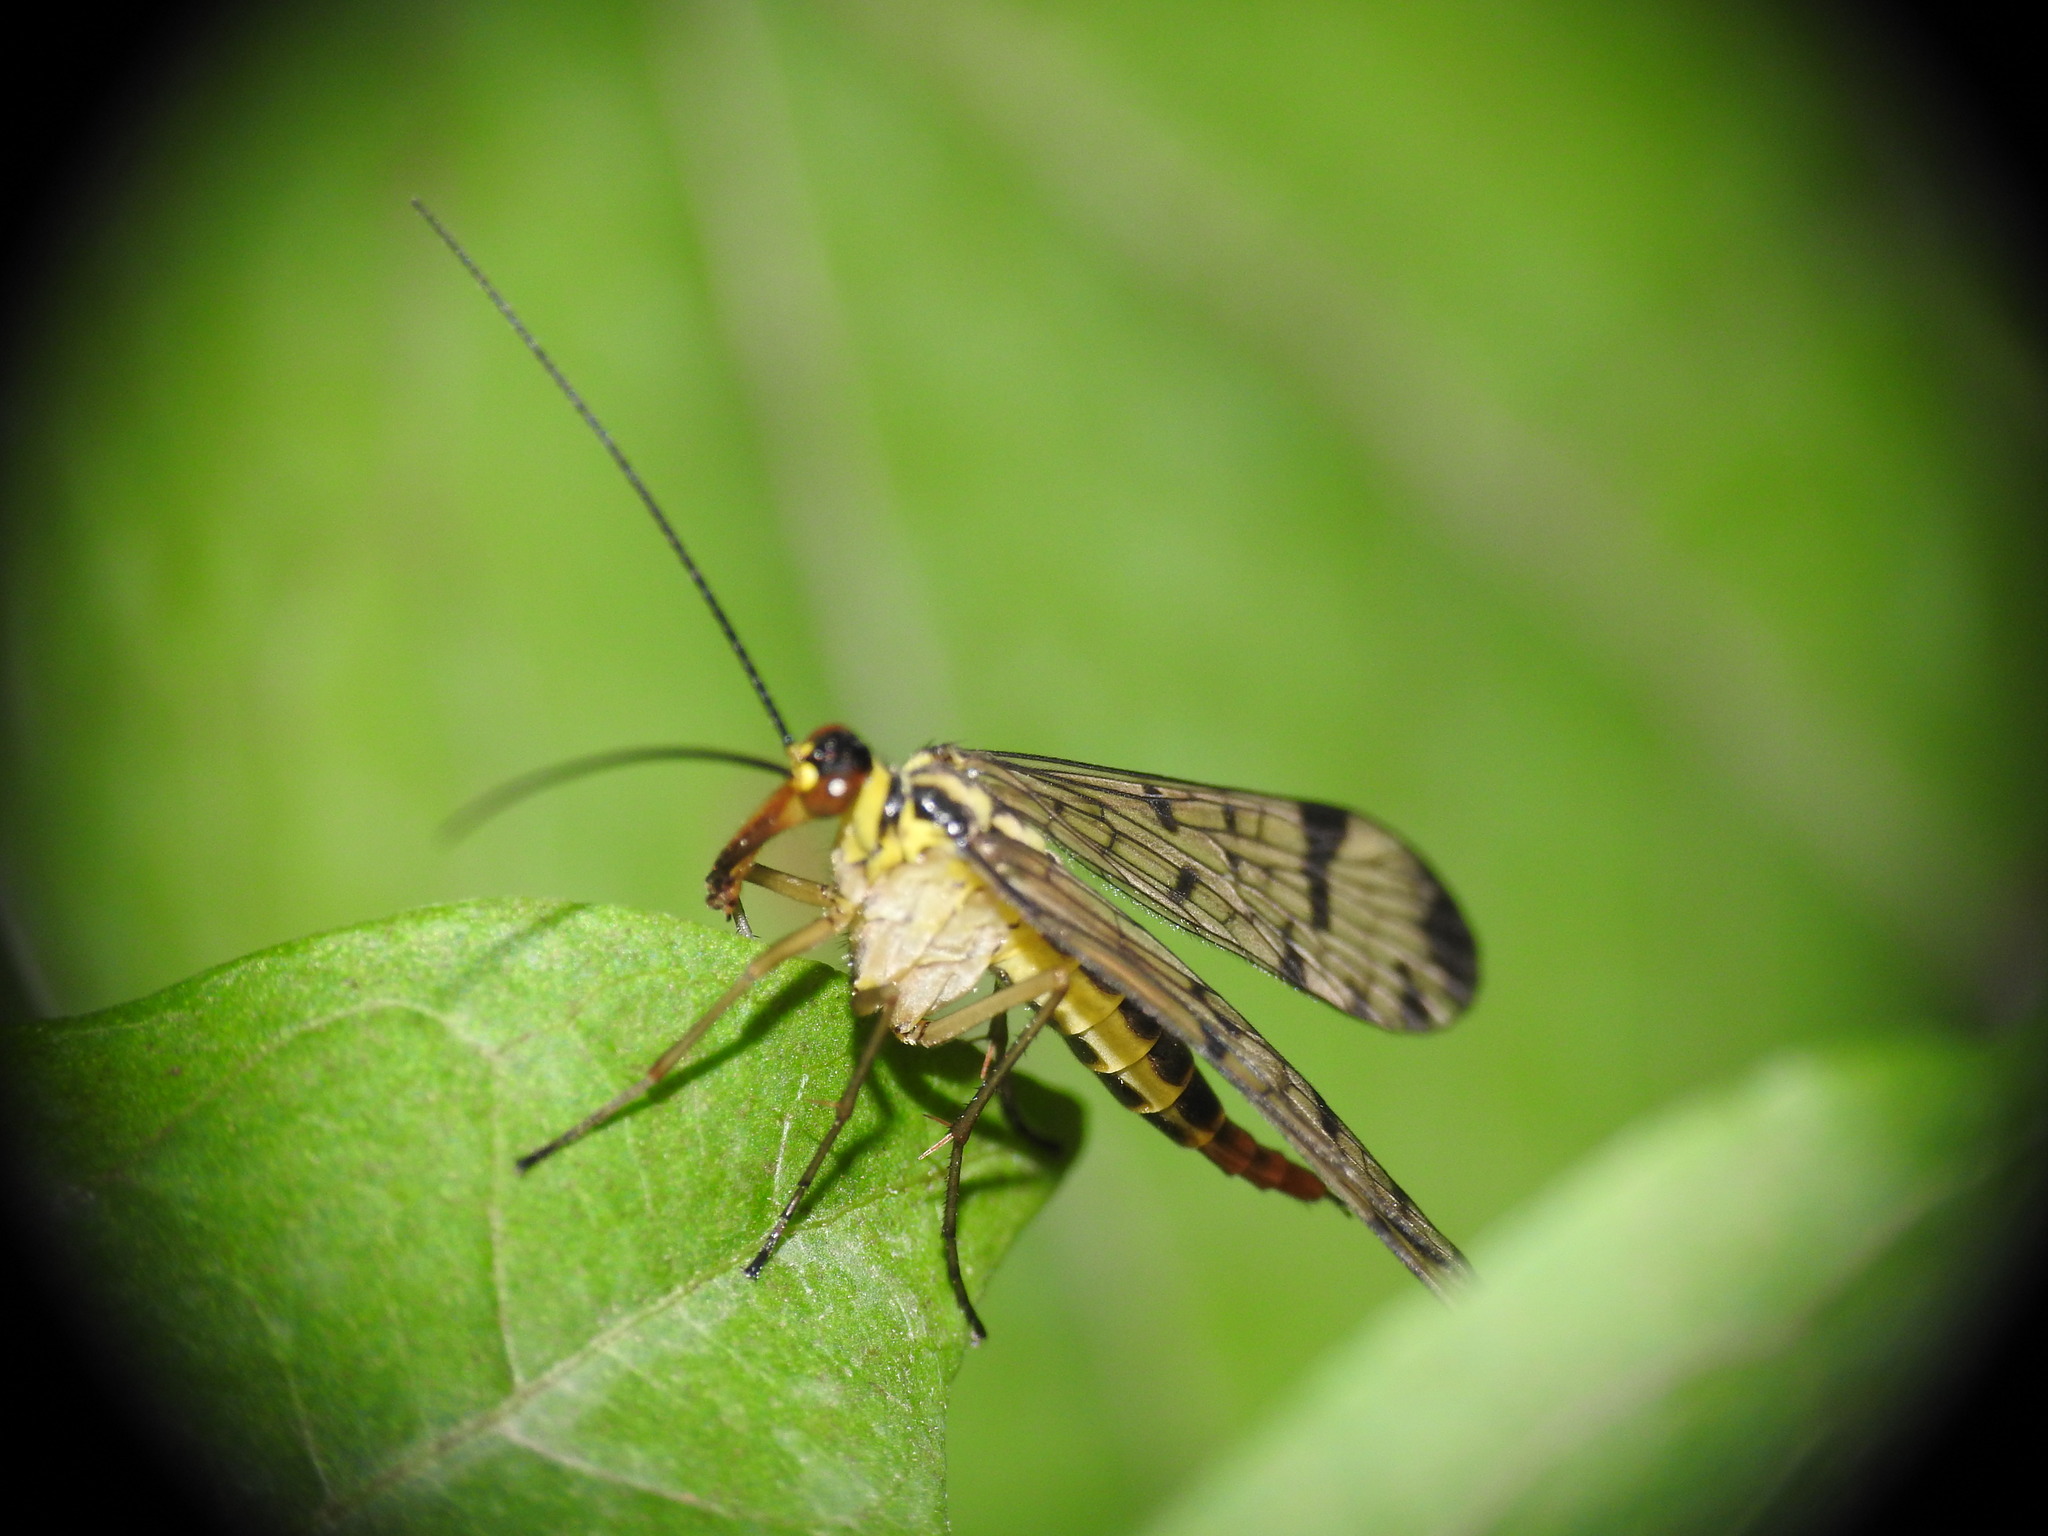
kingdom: Animalia
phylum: Arthropoda
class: Insecta
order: Mecoptera
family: Panorpidae
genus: Panorpa
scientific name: Panorpa germanica
